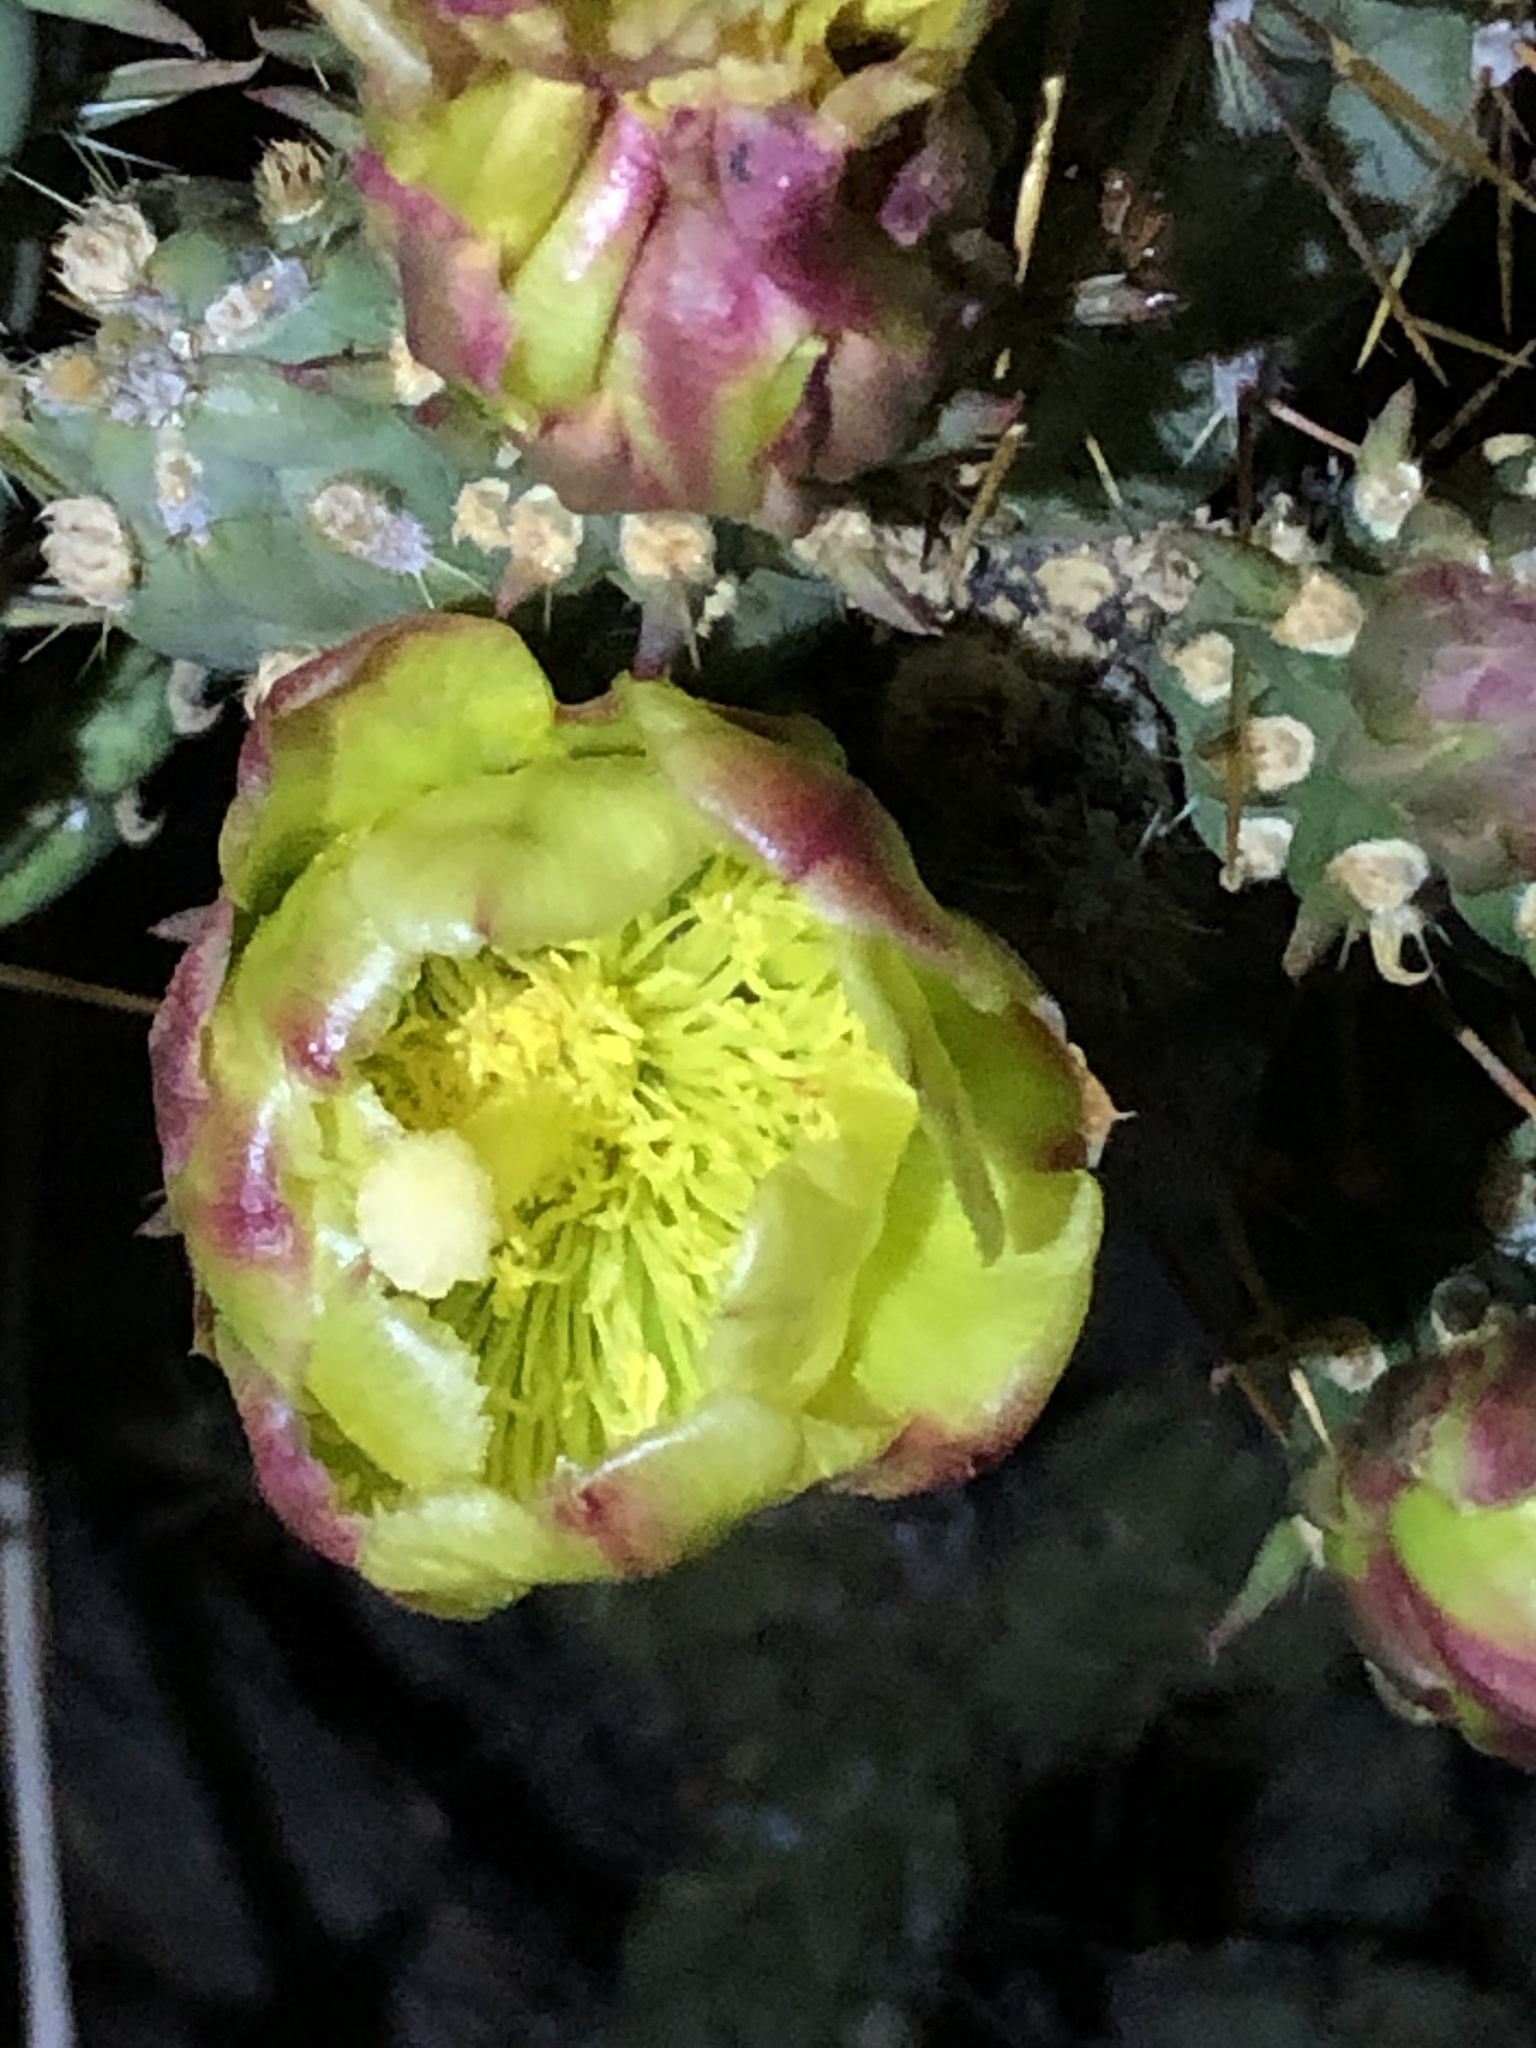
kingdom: Plantae
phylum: Tracheophyta
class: Magnoliopsida
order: Caryophyllales
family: Cactaceae
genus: Cylindropuntia
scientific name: Cylindropuntia bernardina
